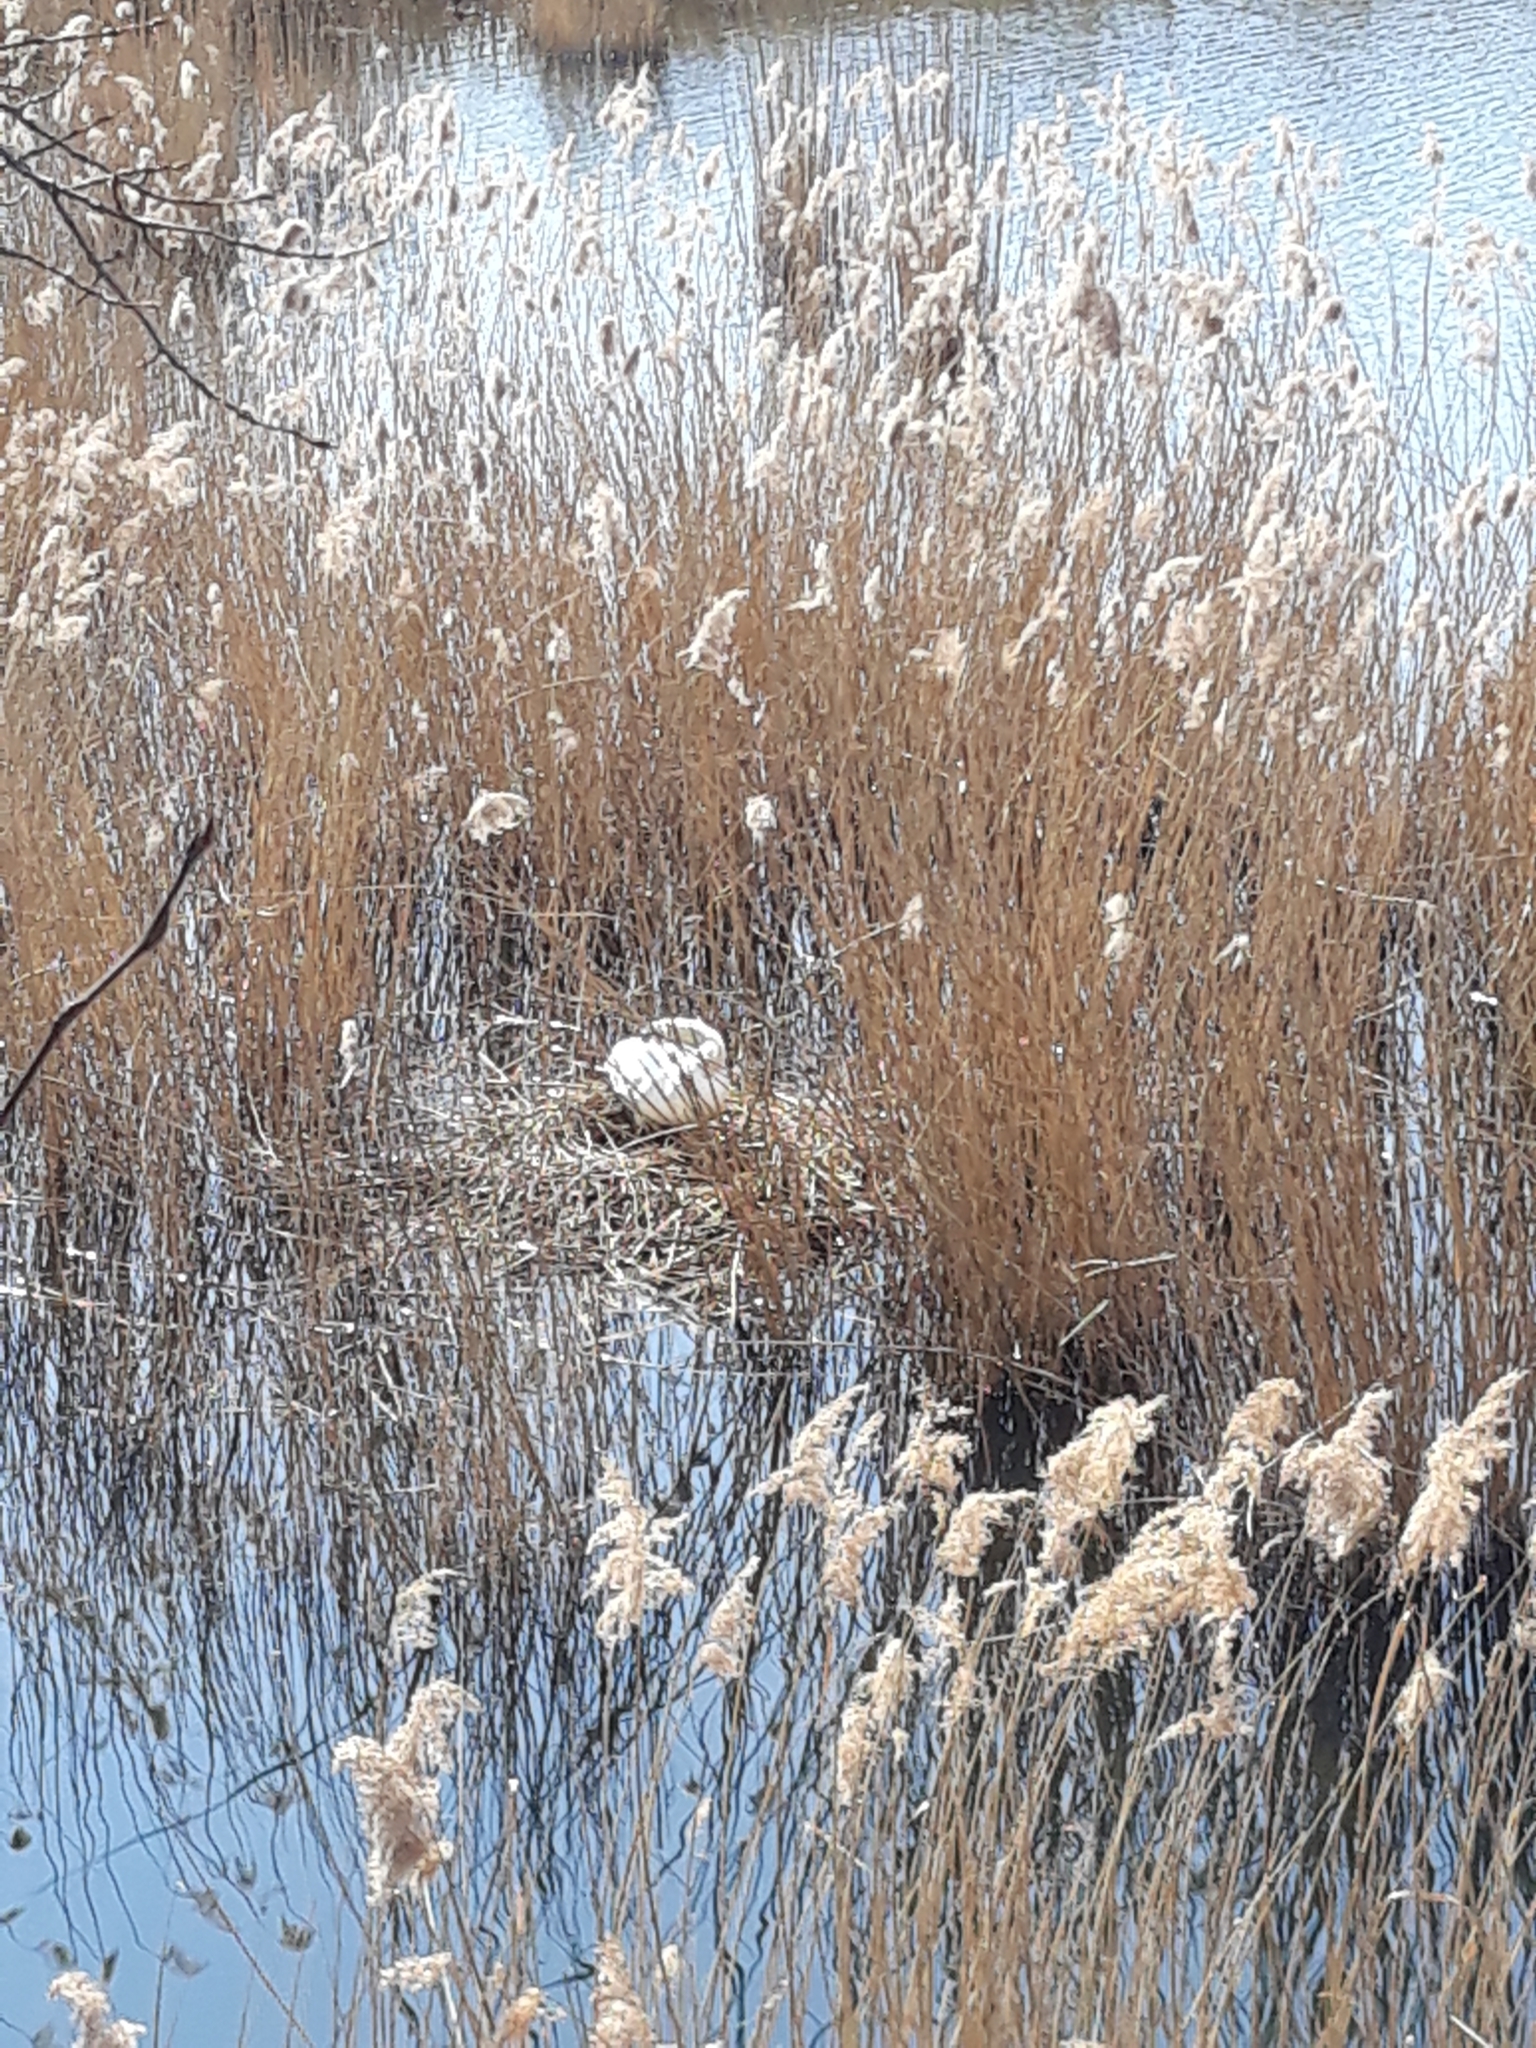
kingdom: Animalia
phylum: Chordata
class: Aves
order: Anseriformes
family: Anatidae
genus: Cygnus
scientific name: Cygnus olor
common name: Mute swan
